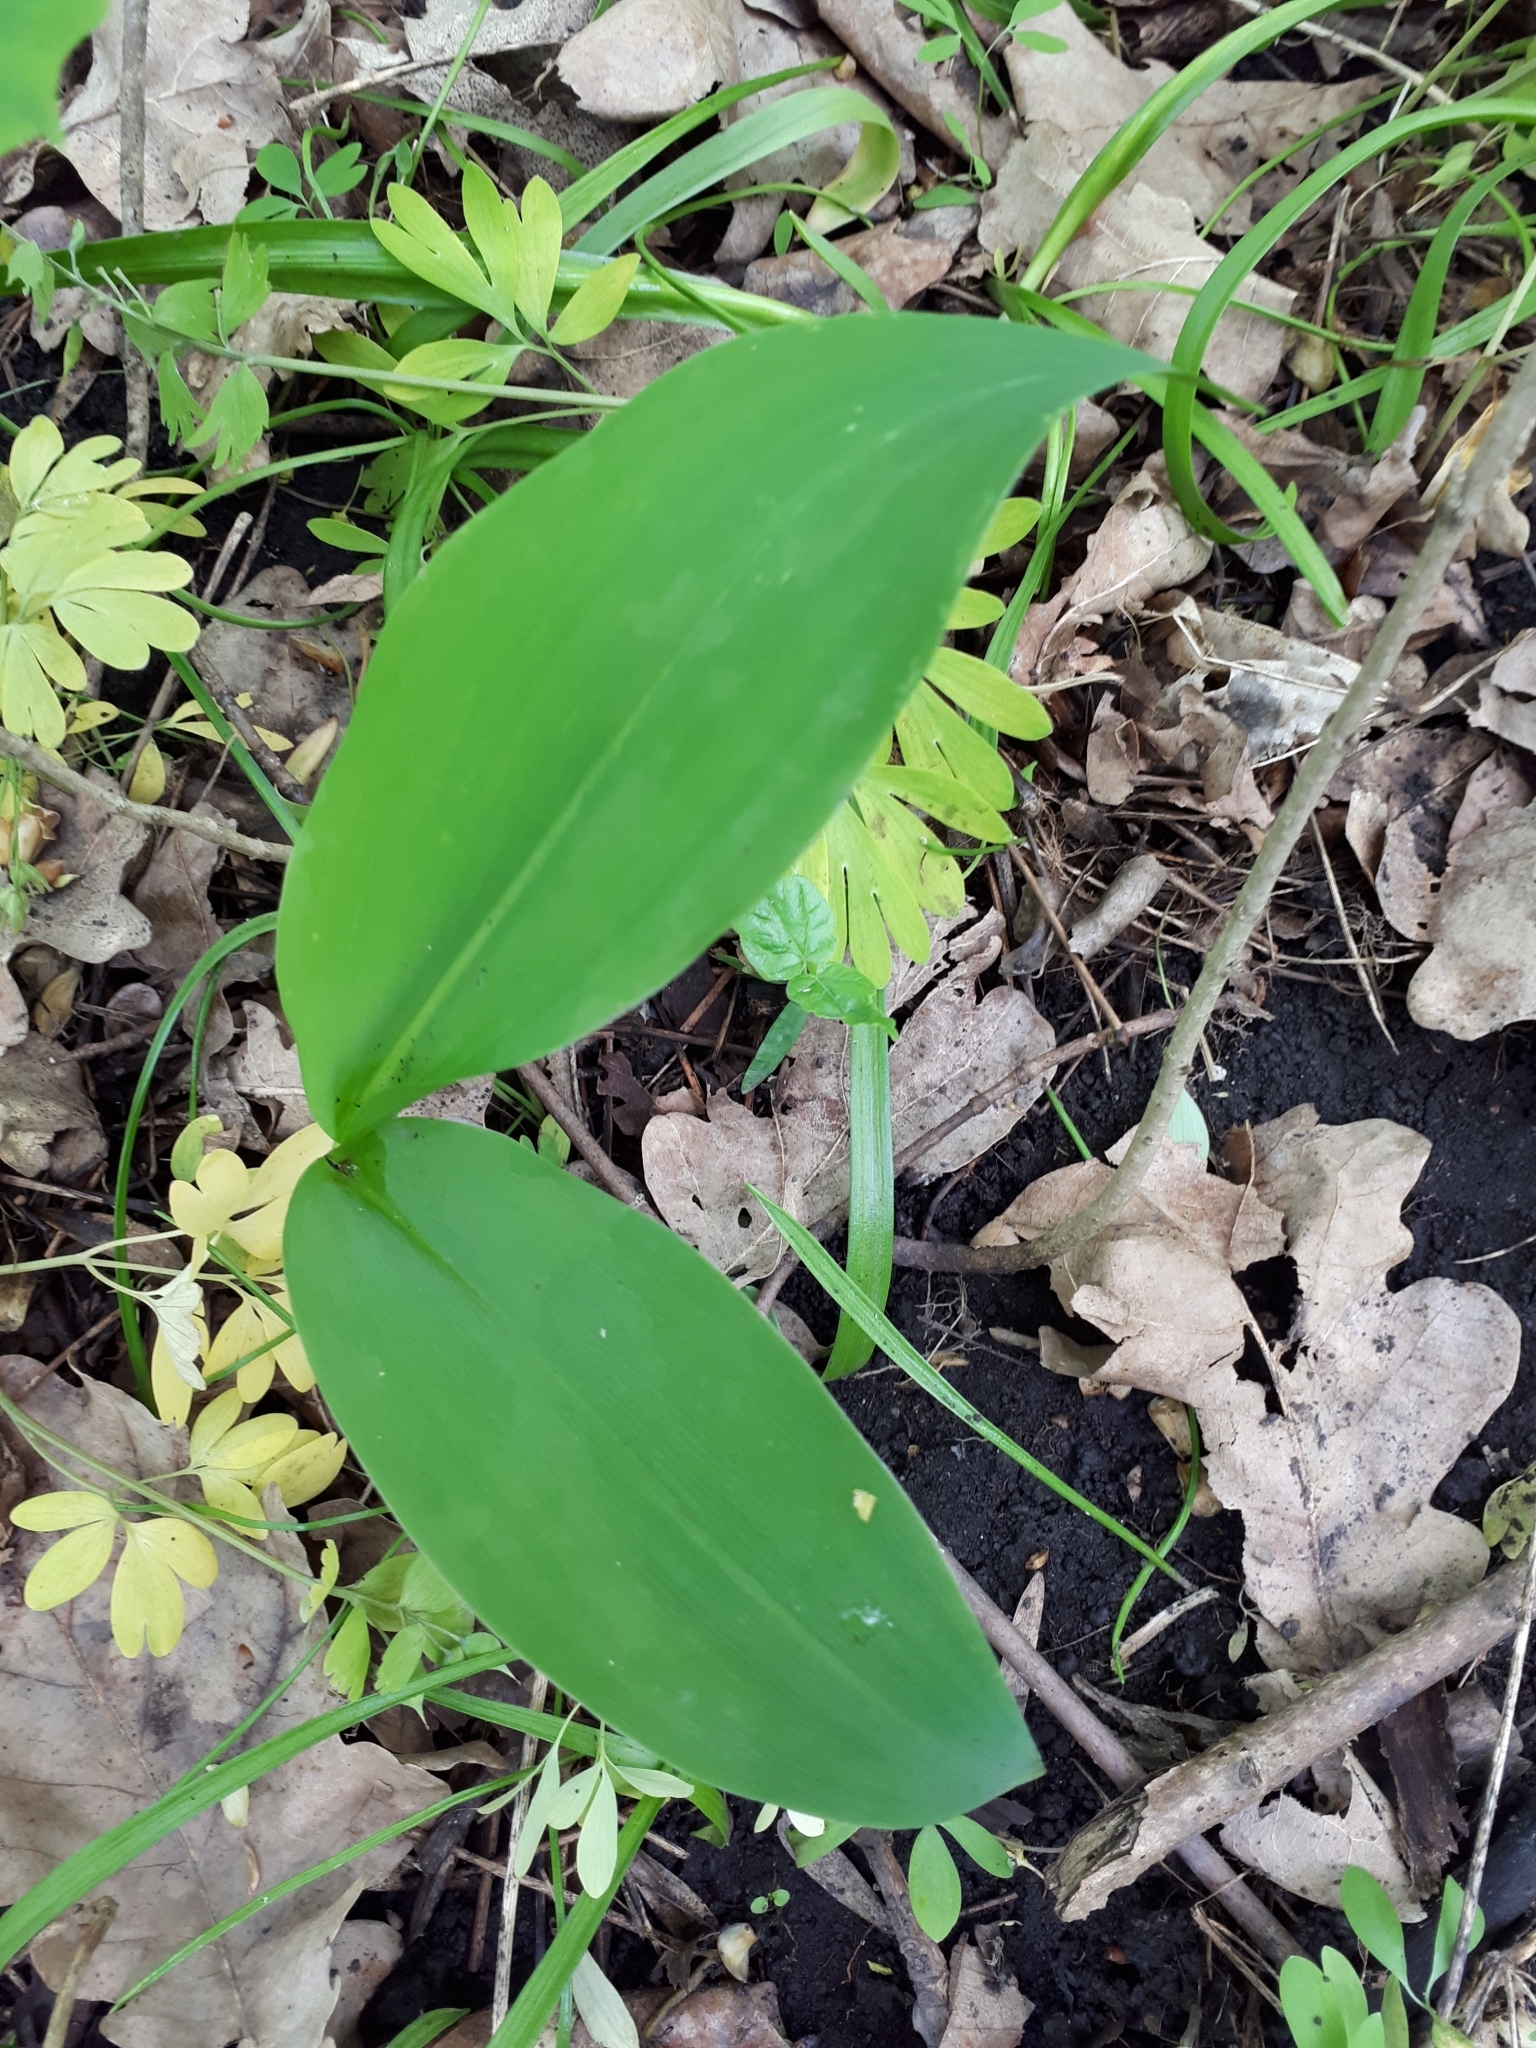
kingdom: Plantae
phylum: Tracheophyta
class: Liliopsida
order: Asparagales
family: Asparagaceae
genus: Convallaria
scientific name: Convallaria majalis
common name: Lily-of-the-valley
